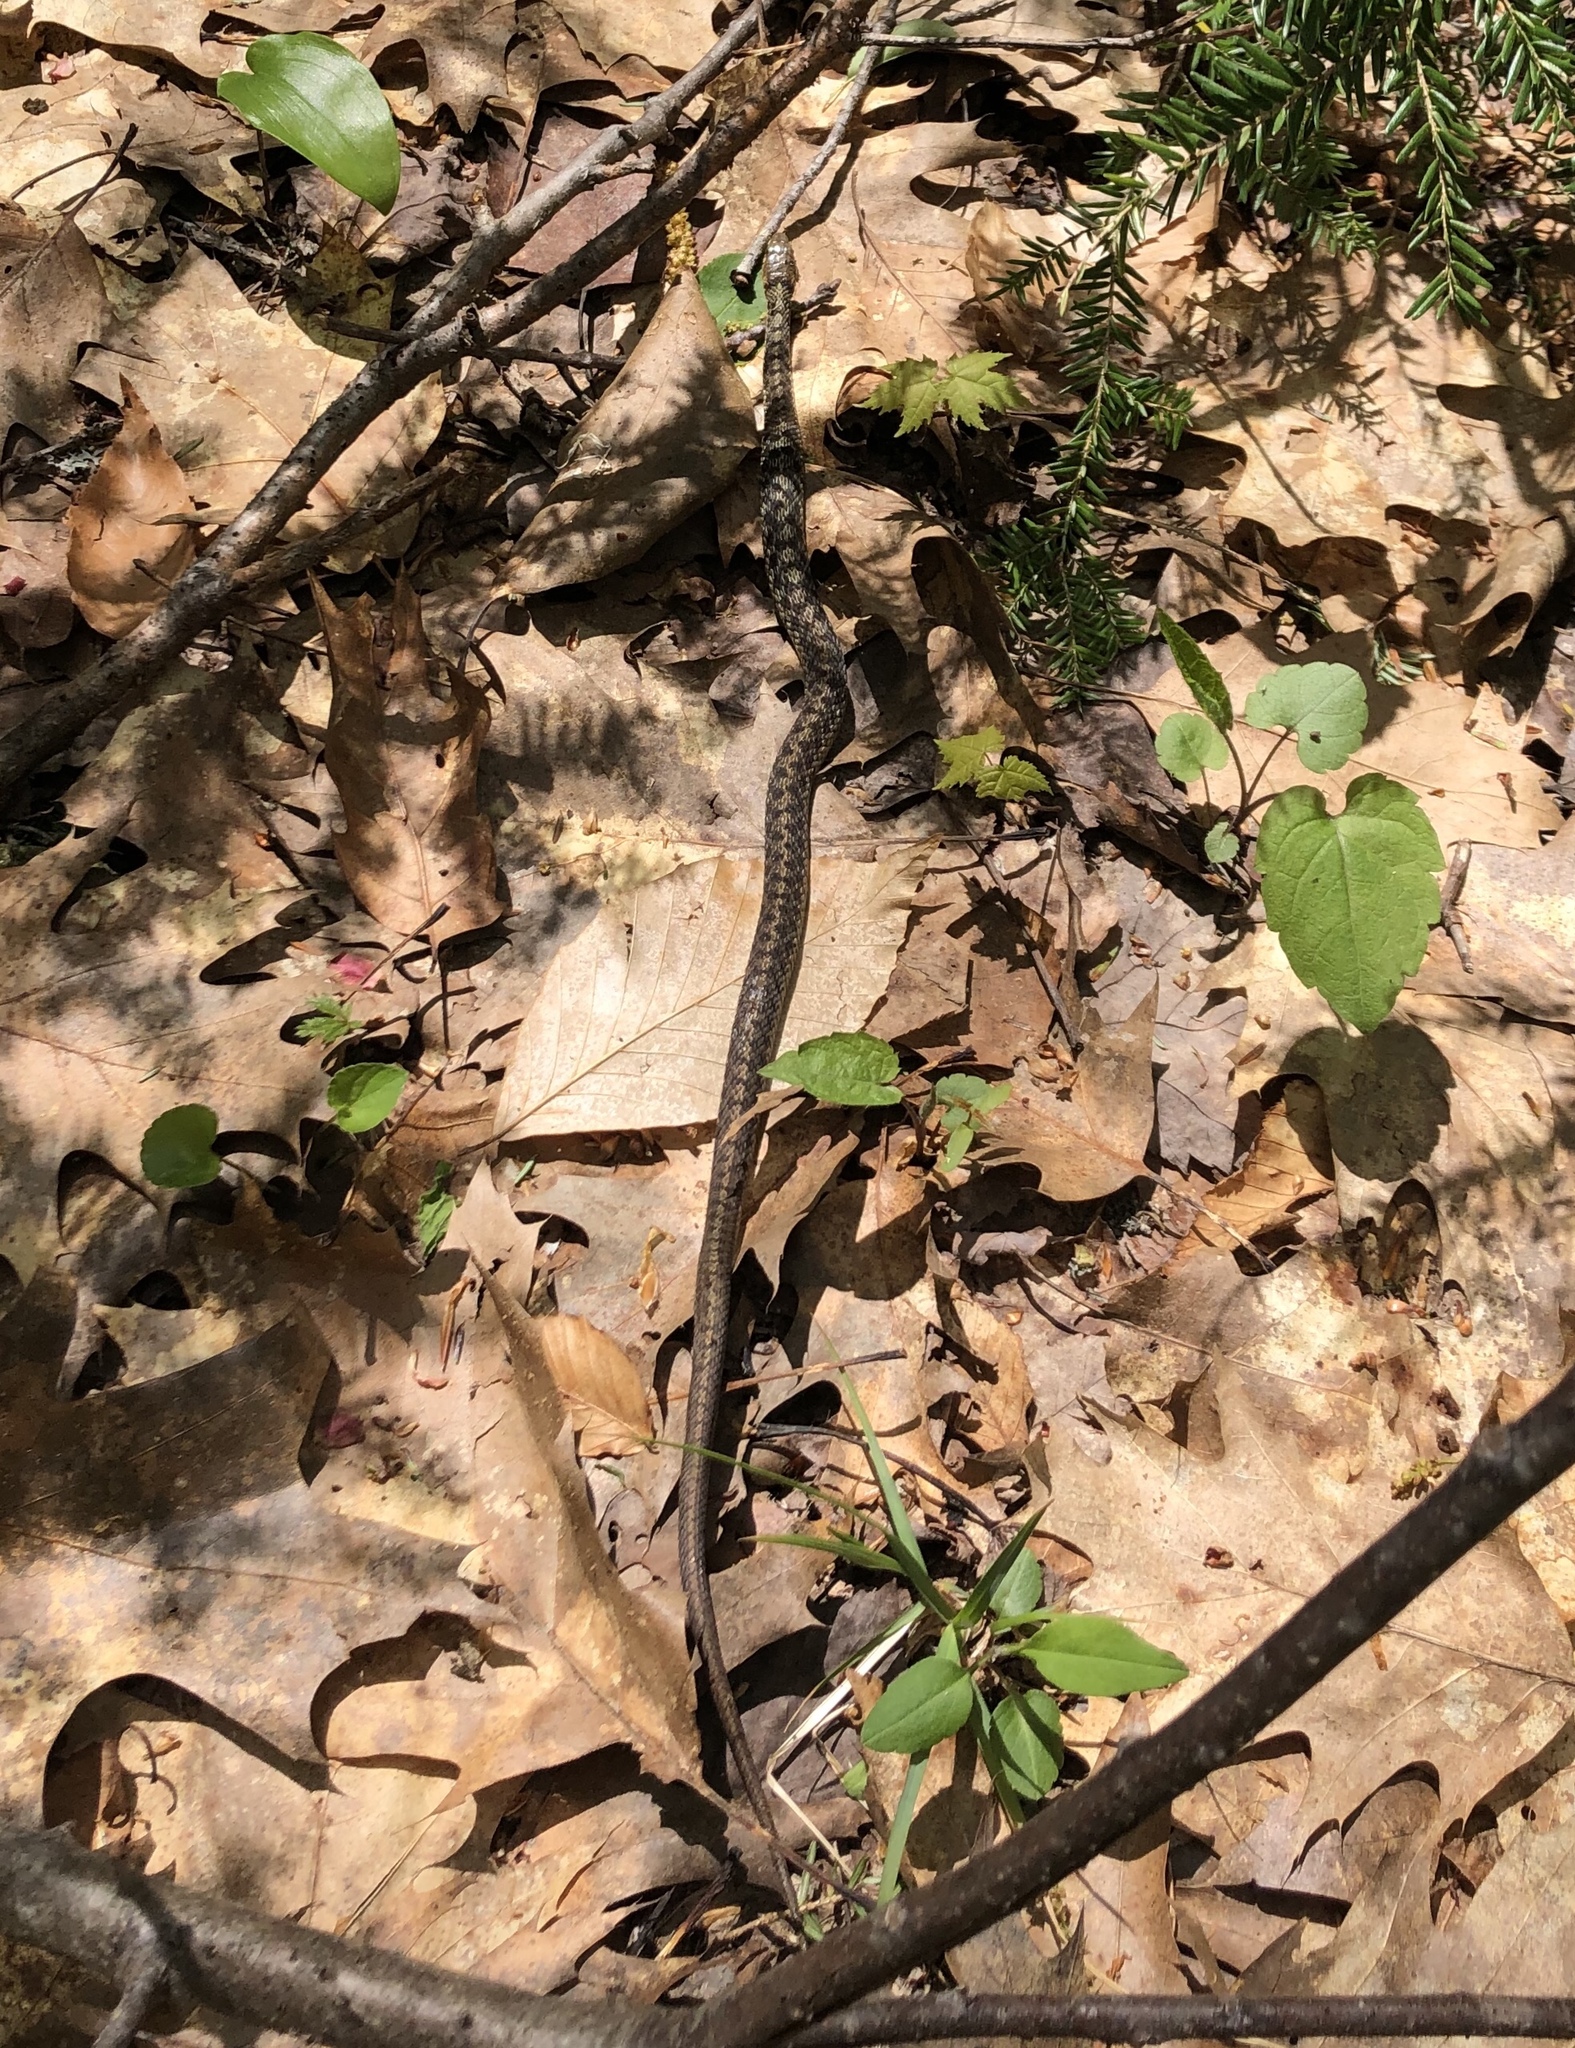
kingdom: Animalia
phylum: Chordata
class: Squamata
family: Colubridae
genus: Thamnophis
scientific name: Thamnophis sirtalis
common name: Common garter snake
